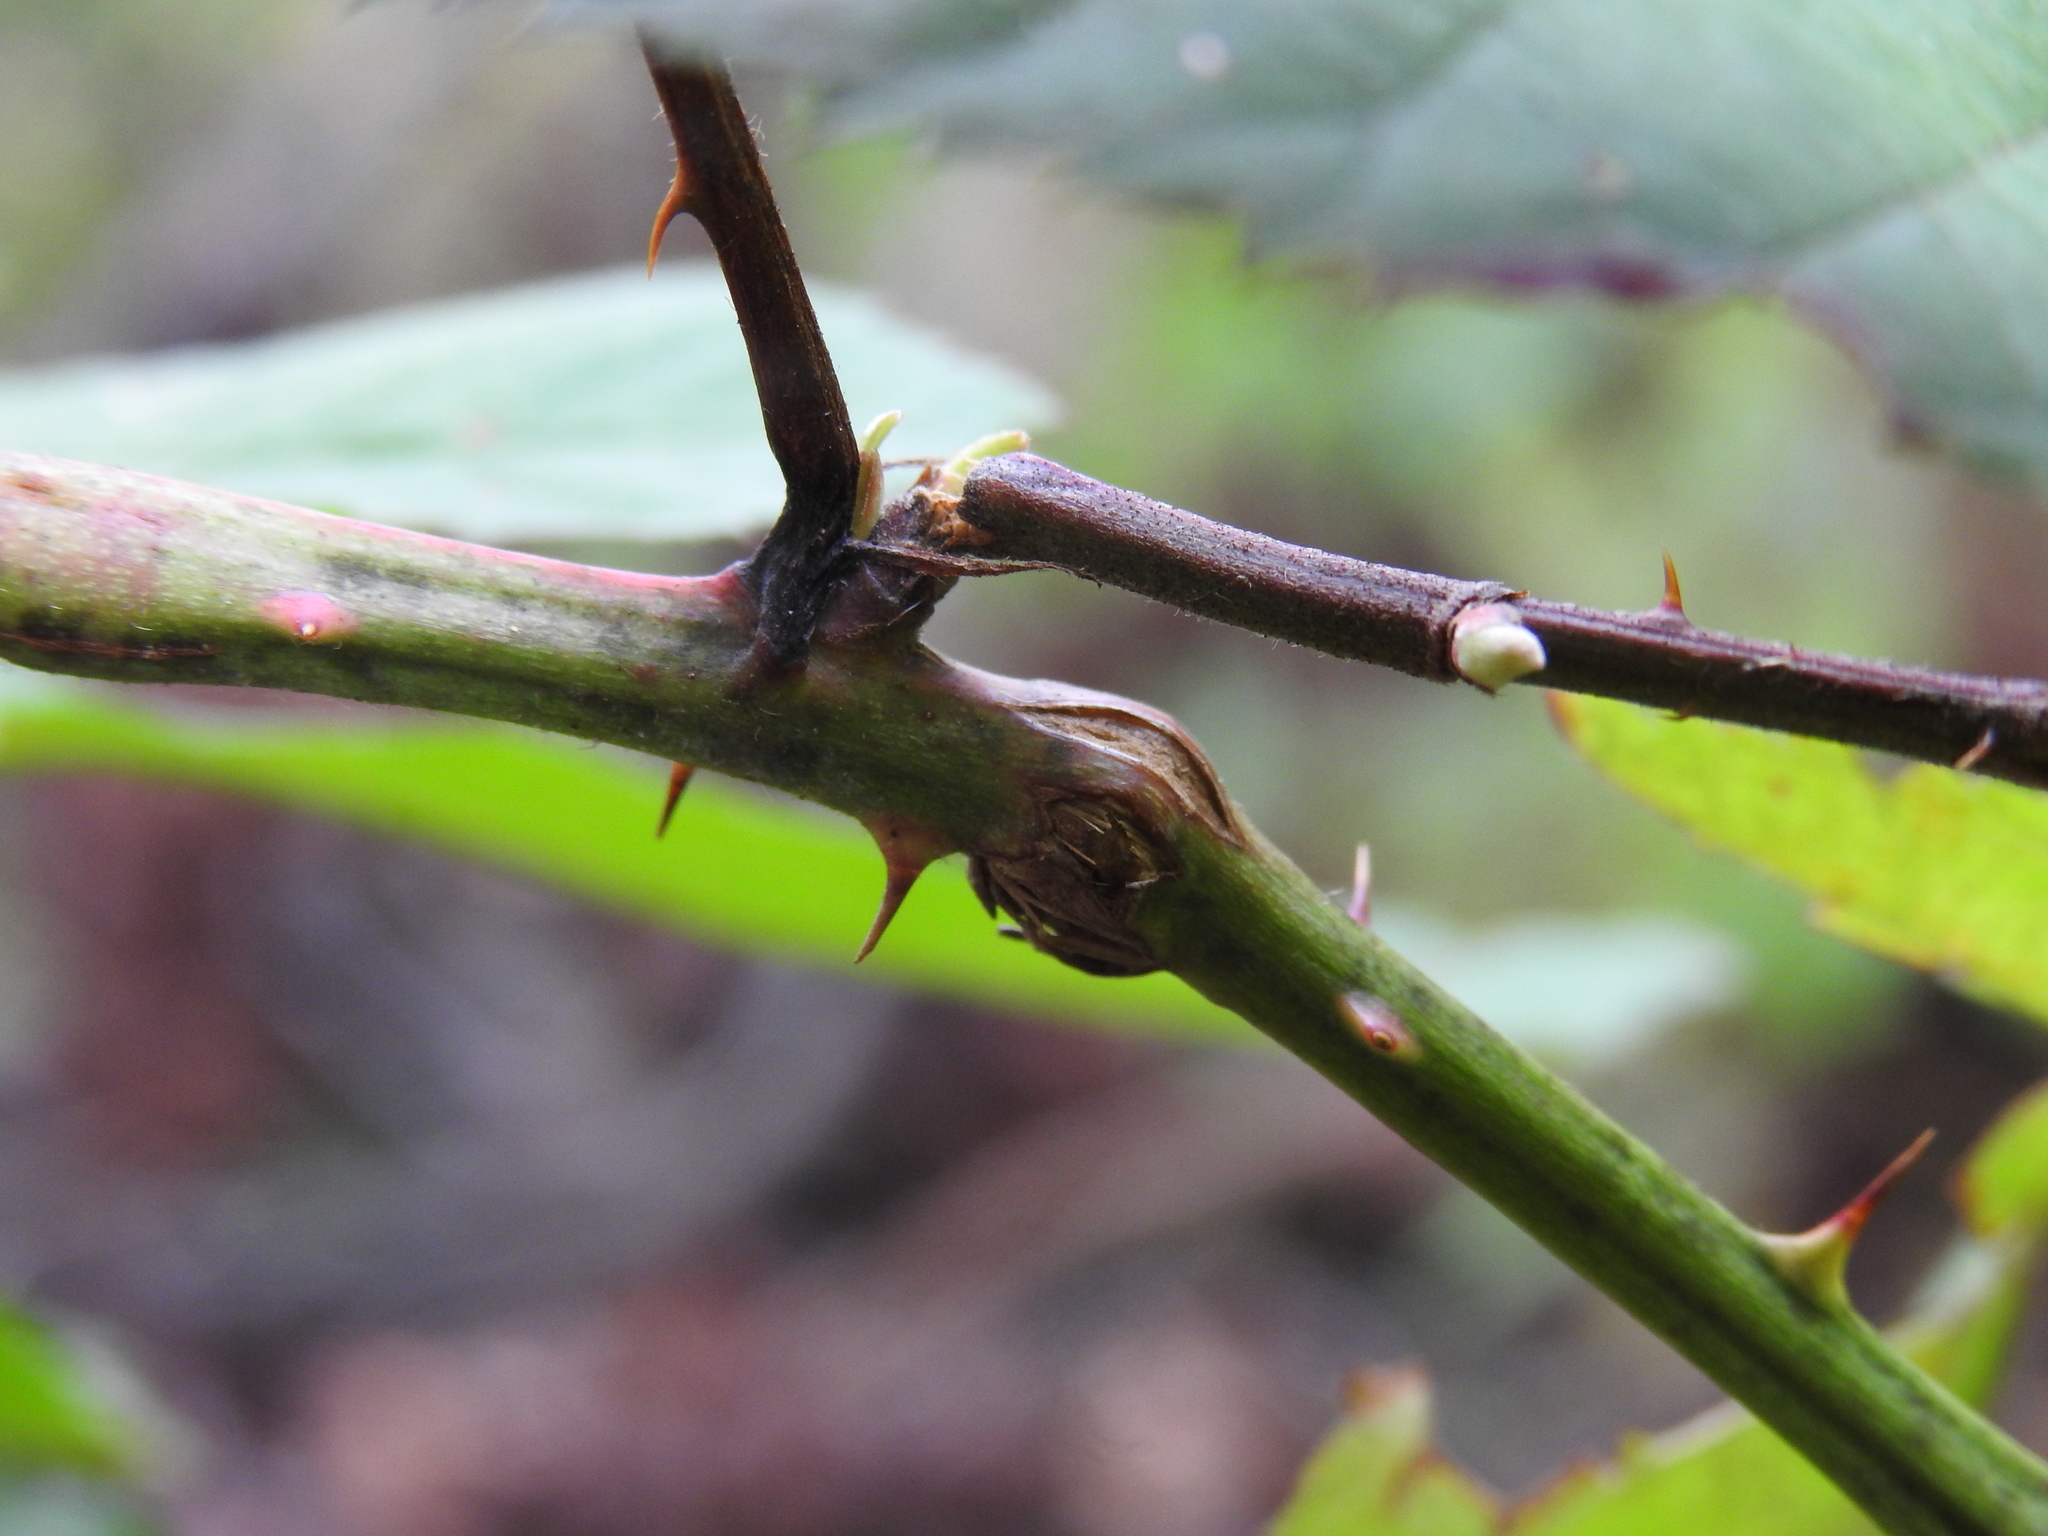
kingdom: Animalia
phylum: Arthropoda
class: Insecta
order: Diptera
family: Cecidomyiidae
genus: Neolasioptera
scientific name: Neolasioptera nodulosa
